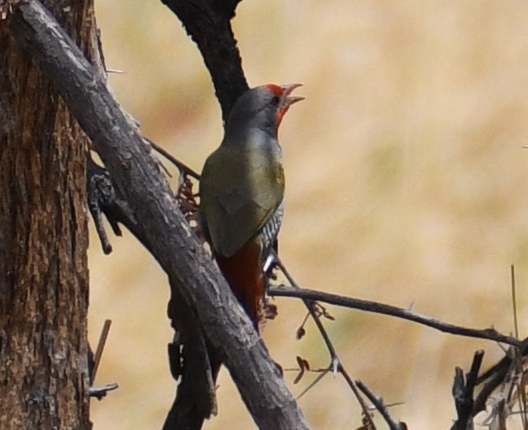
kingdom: Animalia
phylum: Chordata
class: Aves
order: Passeriformes
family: Estrildidae
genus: Pytilia
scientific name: Pytilia melba
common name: Green-winged pytilia
